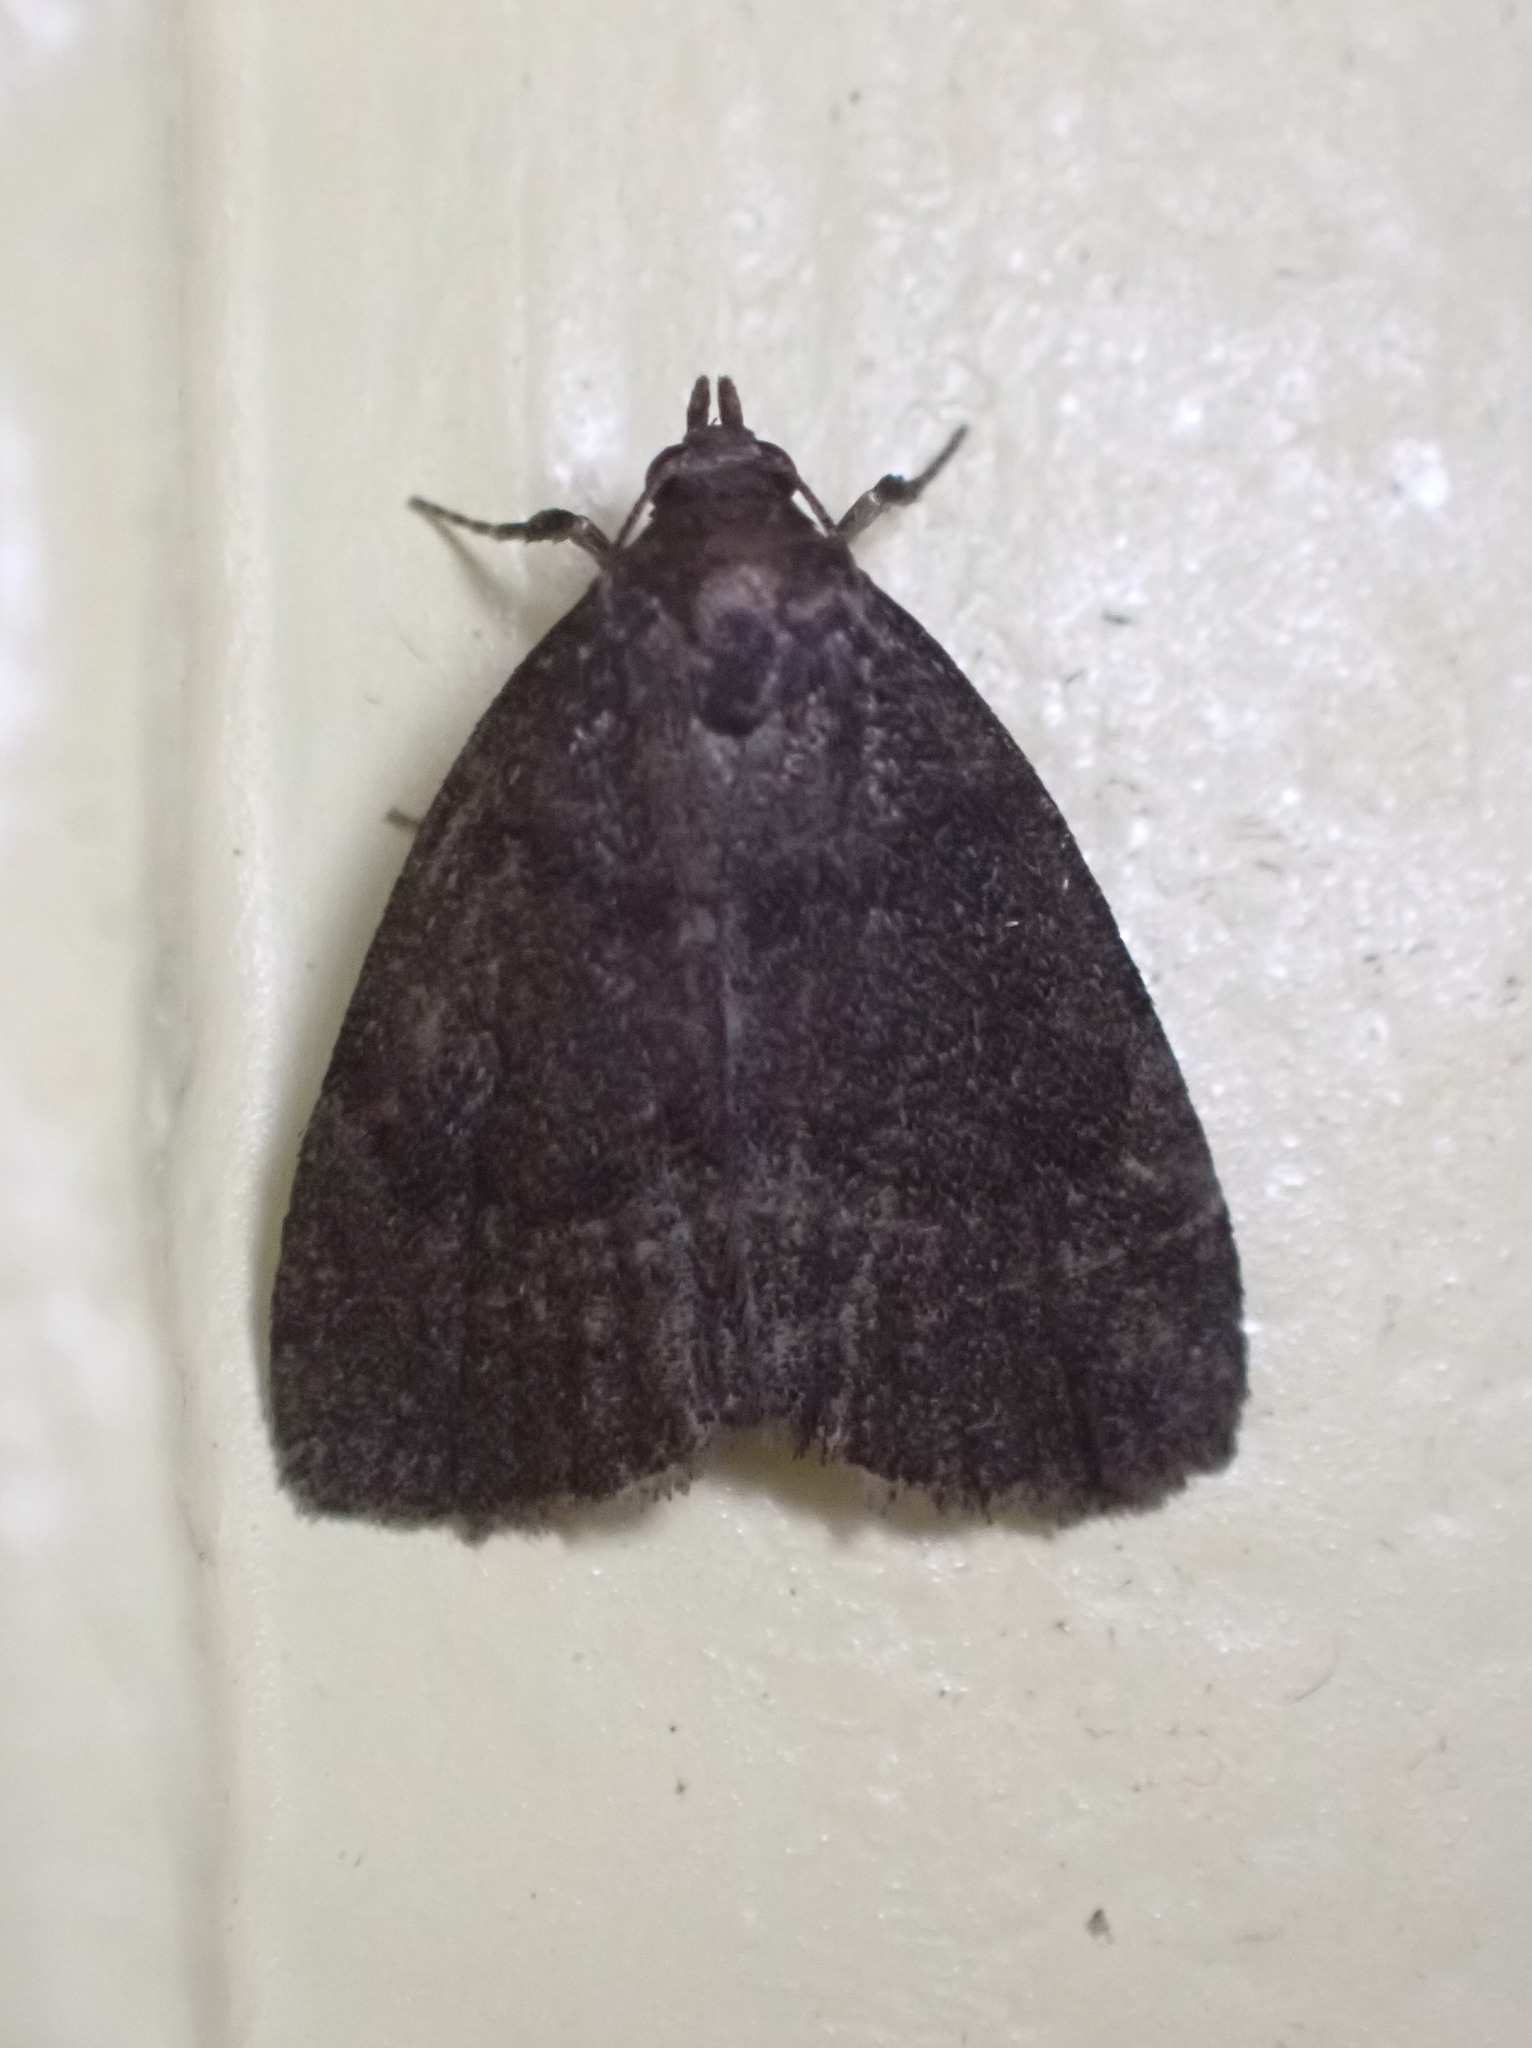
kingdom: Animalia
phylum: Arthropoda
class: Insecta
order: Lepidoptera
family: Erebidae
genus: Idia
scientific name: Idia rotundalis
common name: Rotund idia moth
